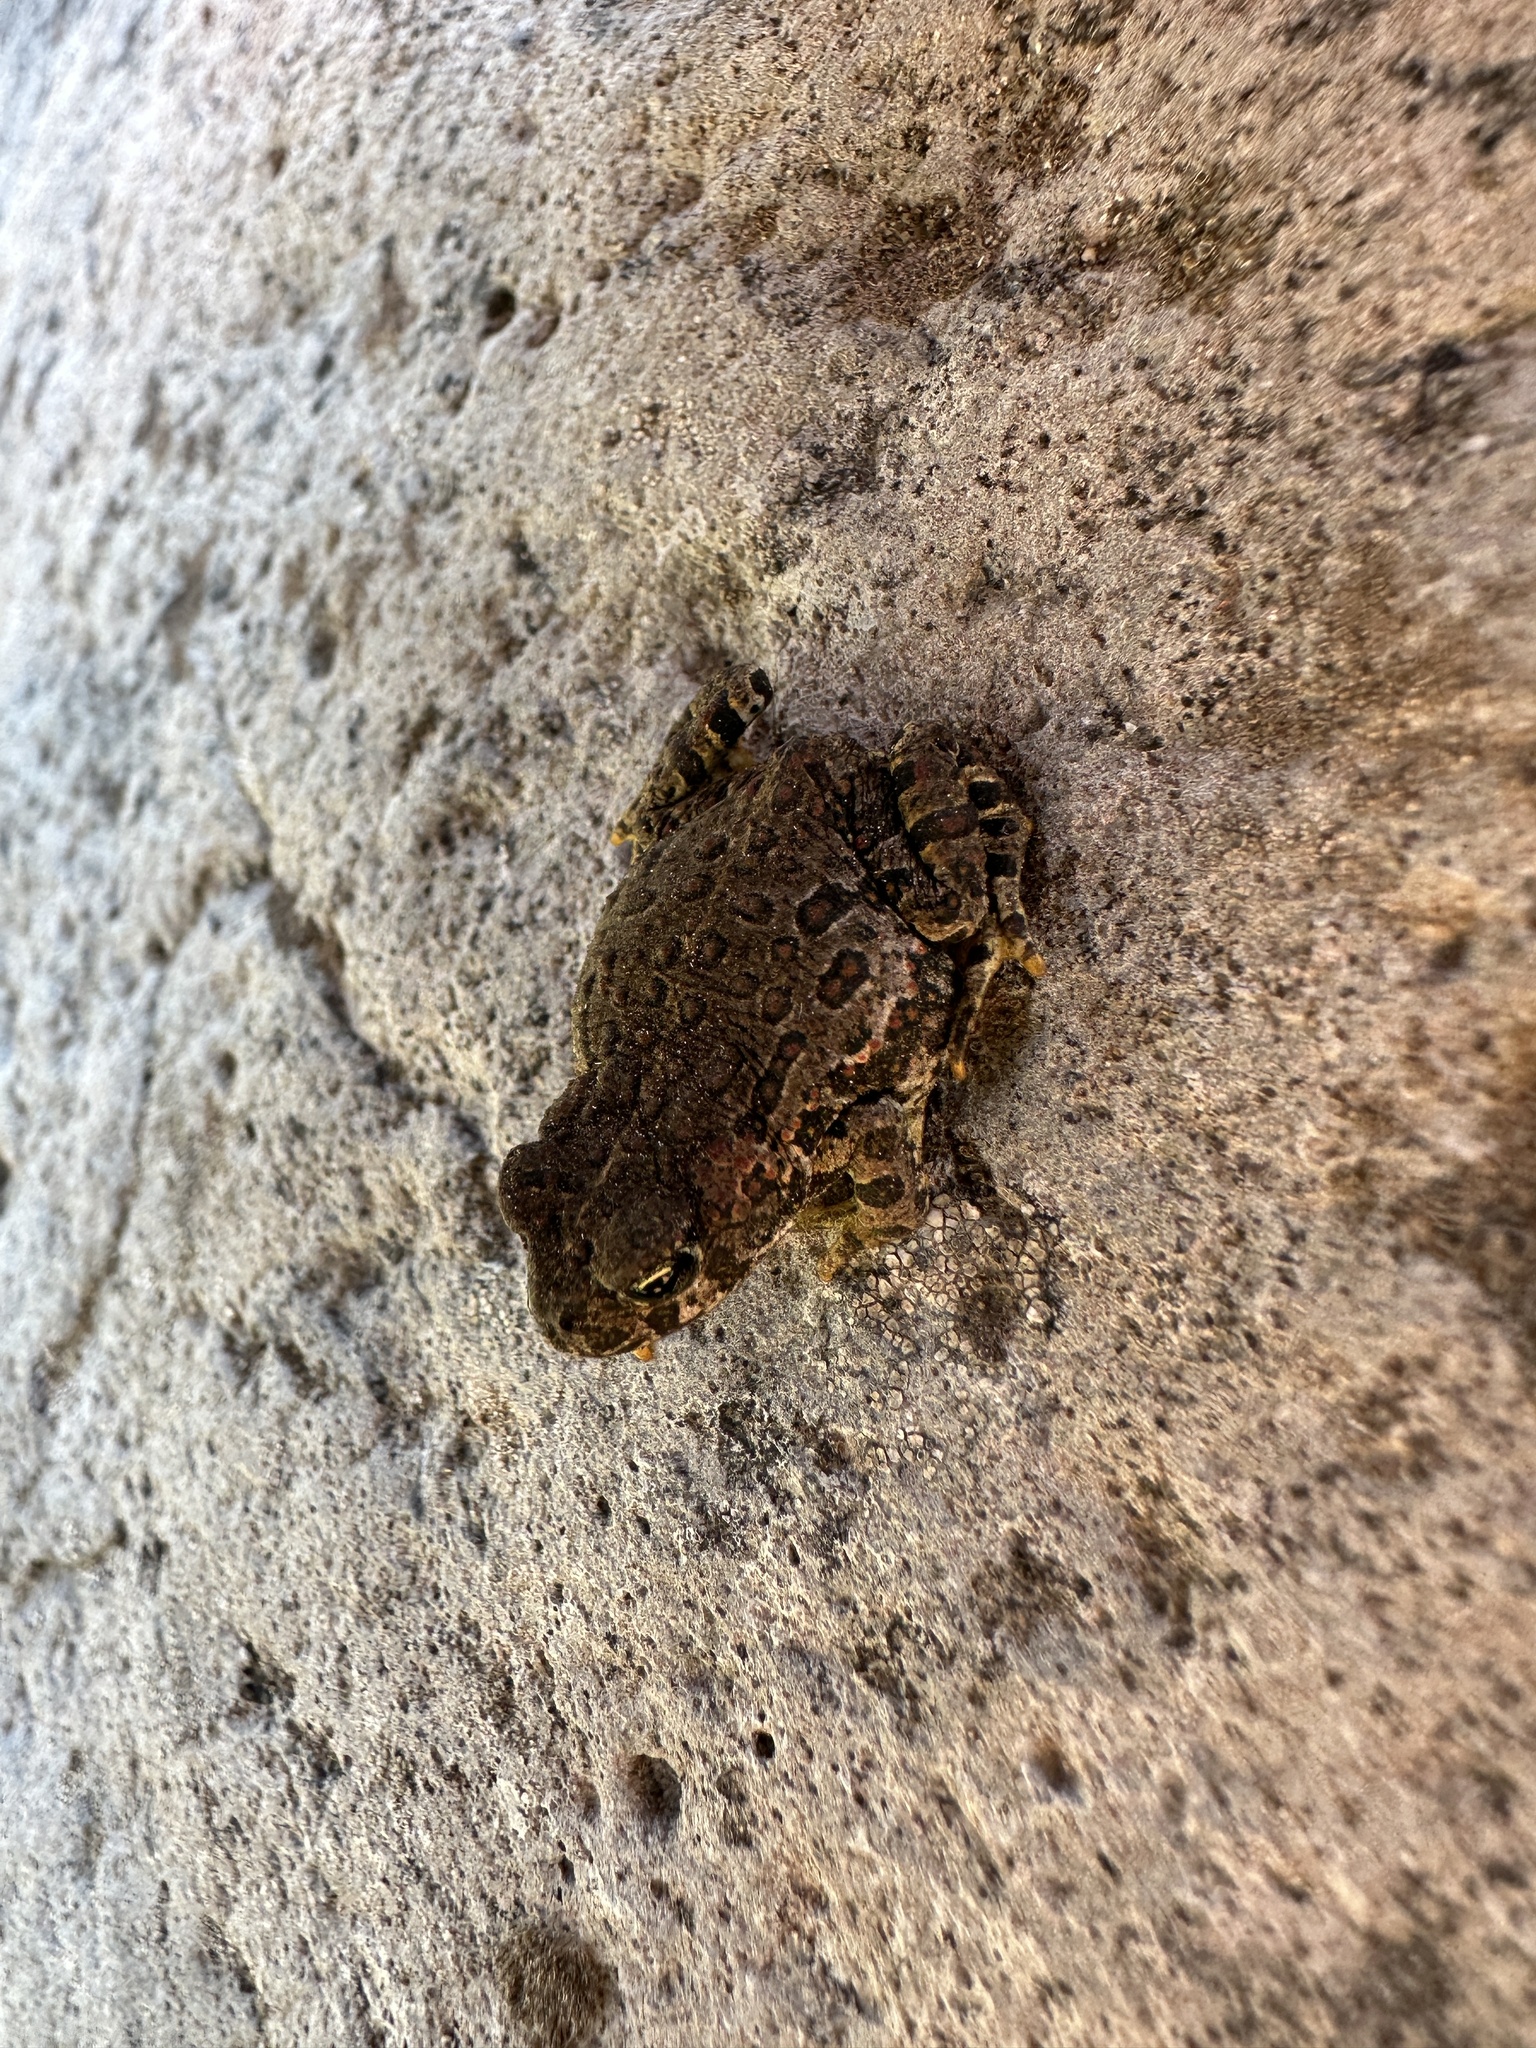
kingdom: Animalia
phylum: Chordata
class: Amphibia
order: Anura
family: Bufonidae
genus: Anaxyrus
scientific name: Anaxyrus boreas
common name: Western toad
